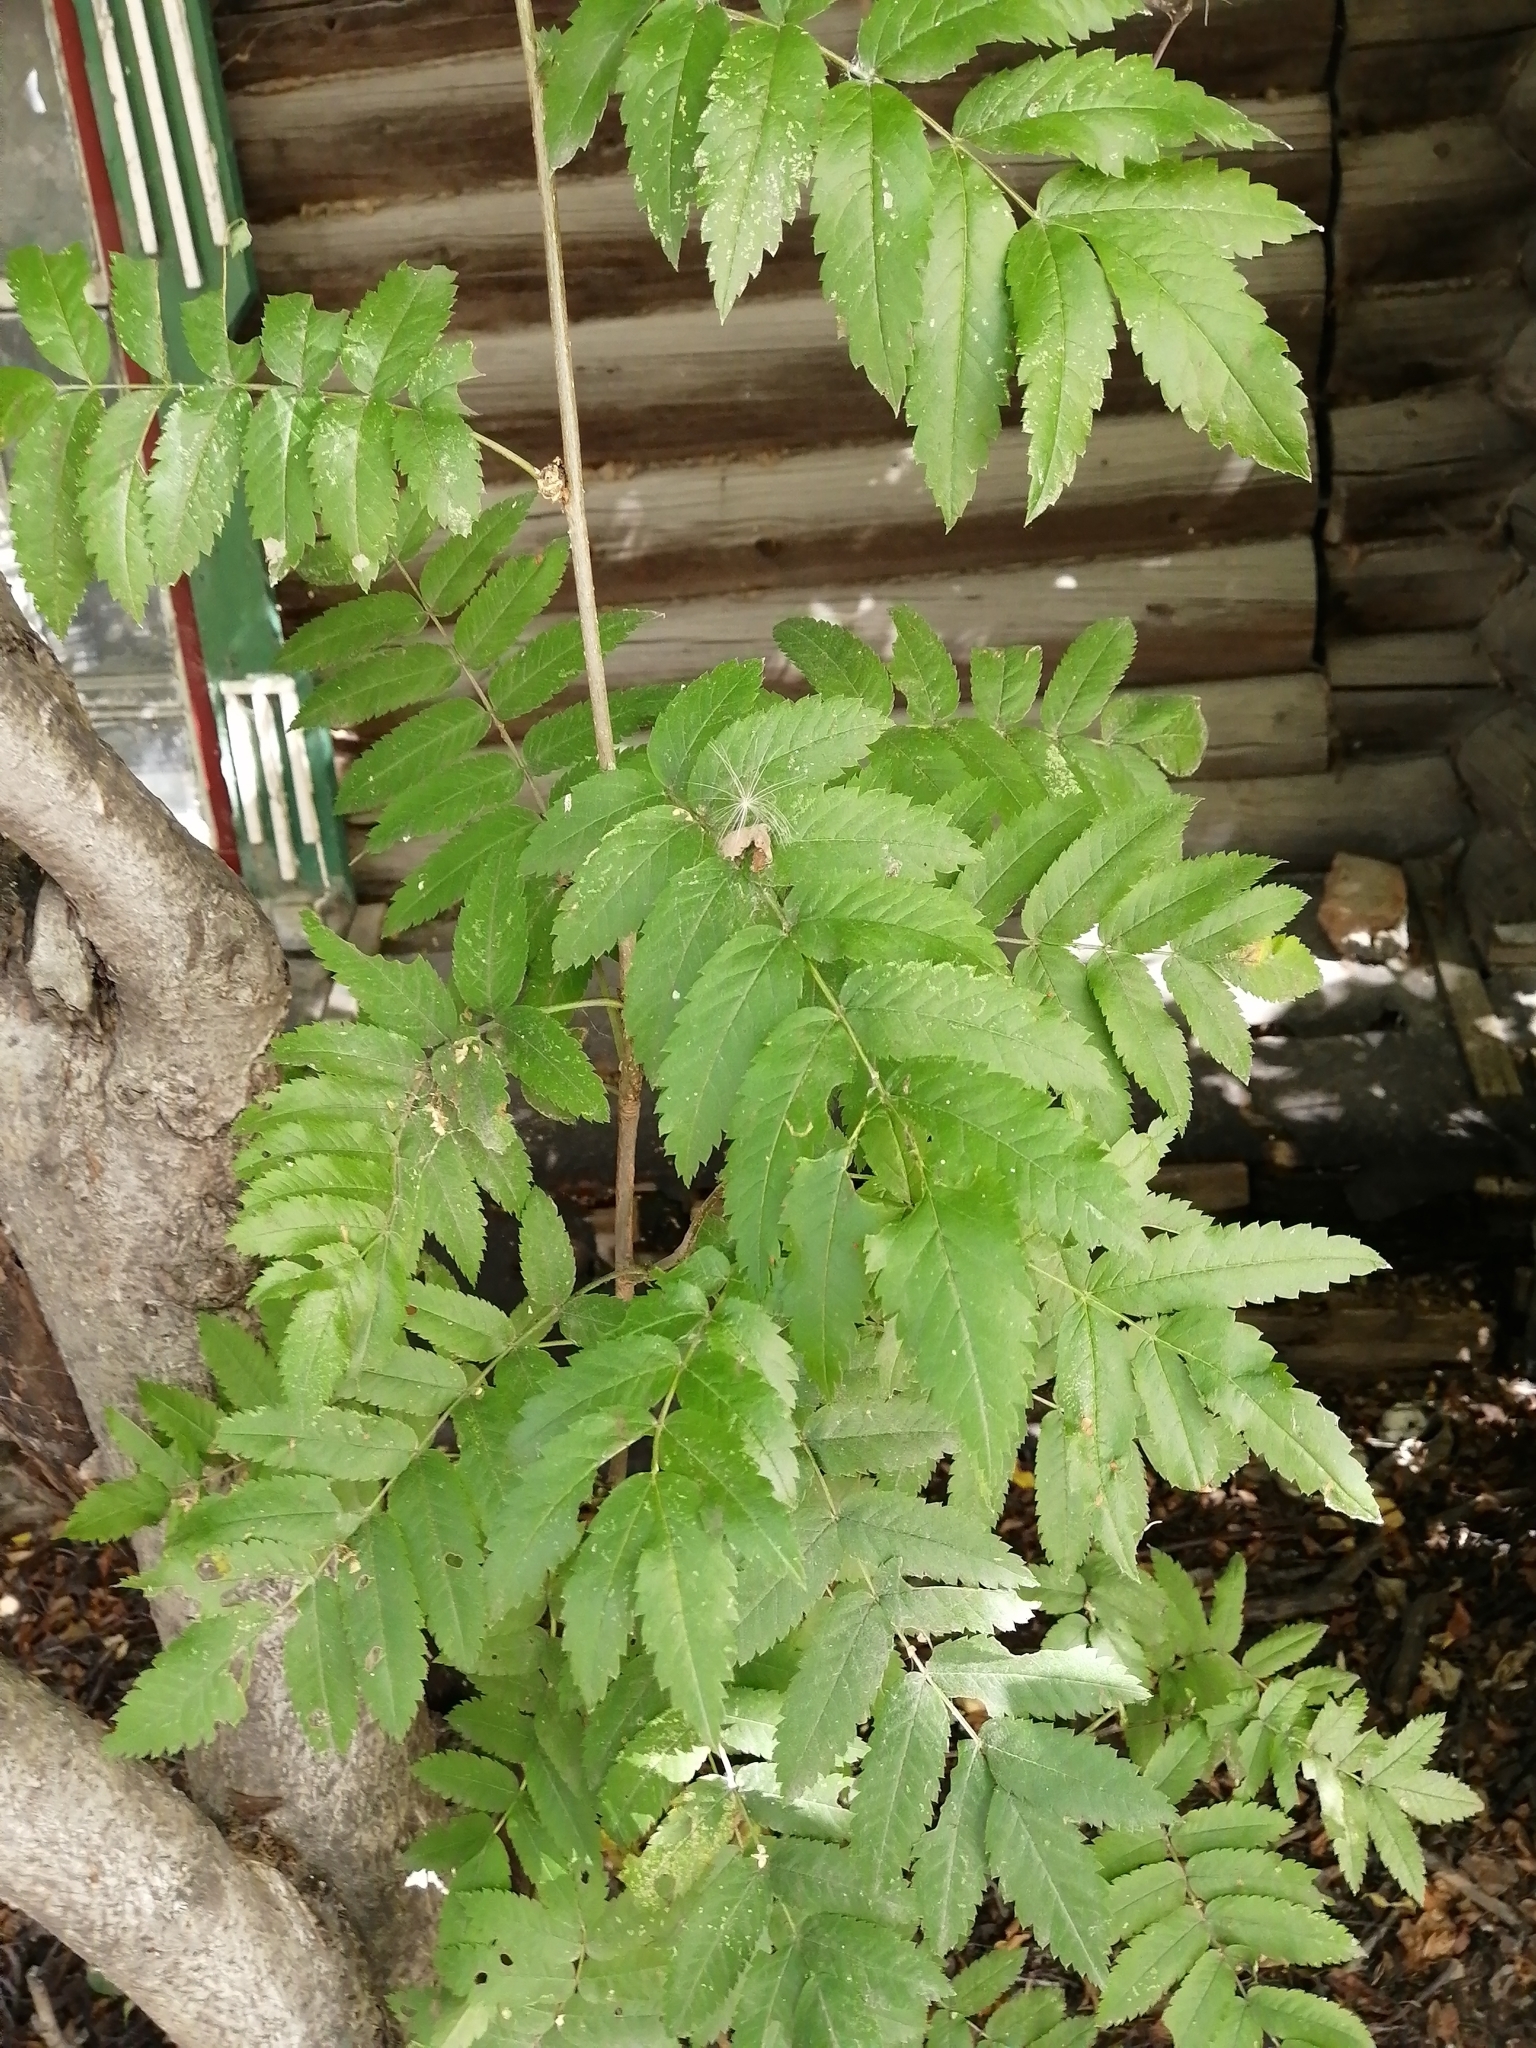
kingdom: Plantae
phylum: Tracheophyta
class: Magnoliopsida
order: Rosales
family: Rosaceae
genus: Sorbus
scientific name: Sorbus aucuparia
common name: Rowan
